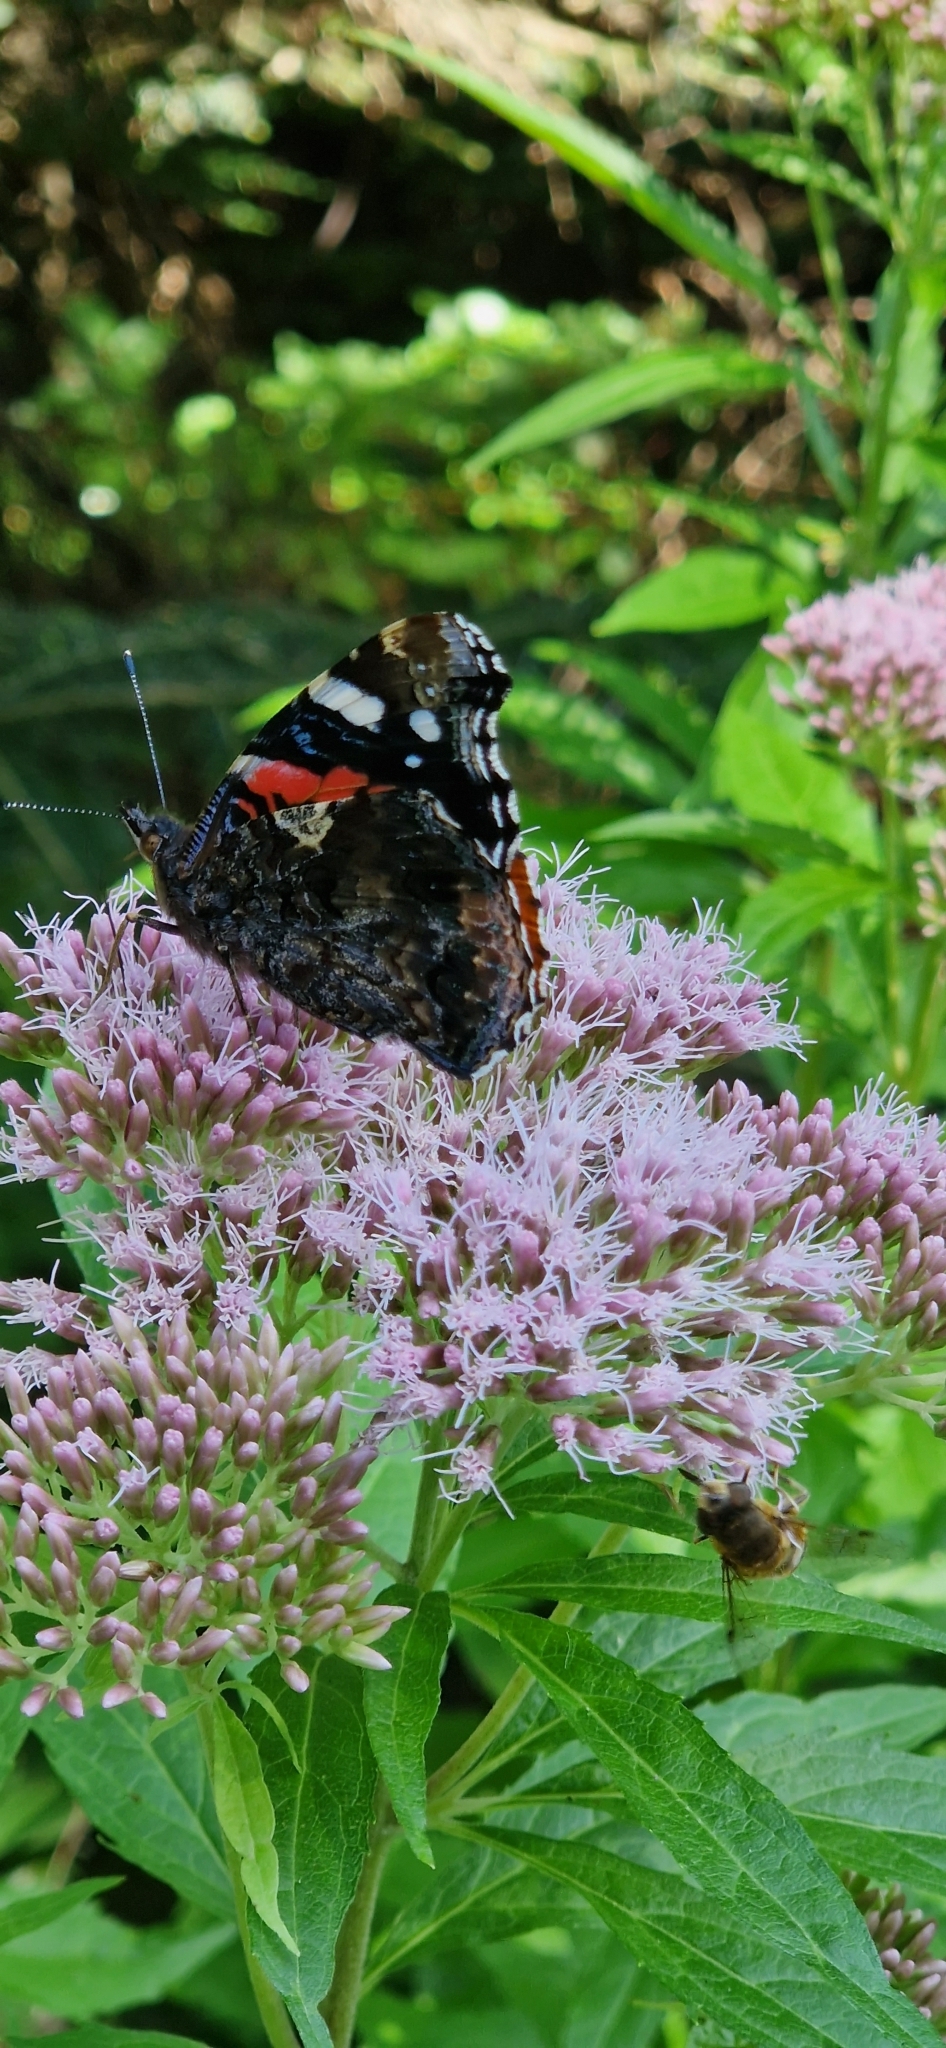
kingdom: Animalia
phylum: Arthropoda
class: Insecta
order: Lepidoptera
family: Nymphalidae
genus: Vanessa
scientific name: Vanessa atalanta
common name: Red admiral
